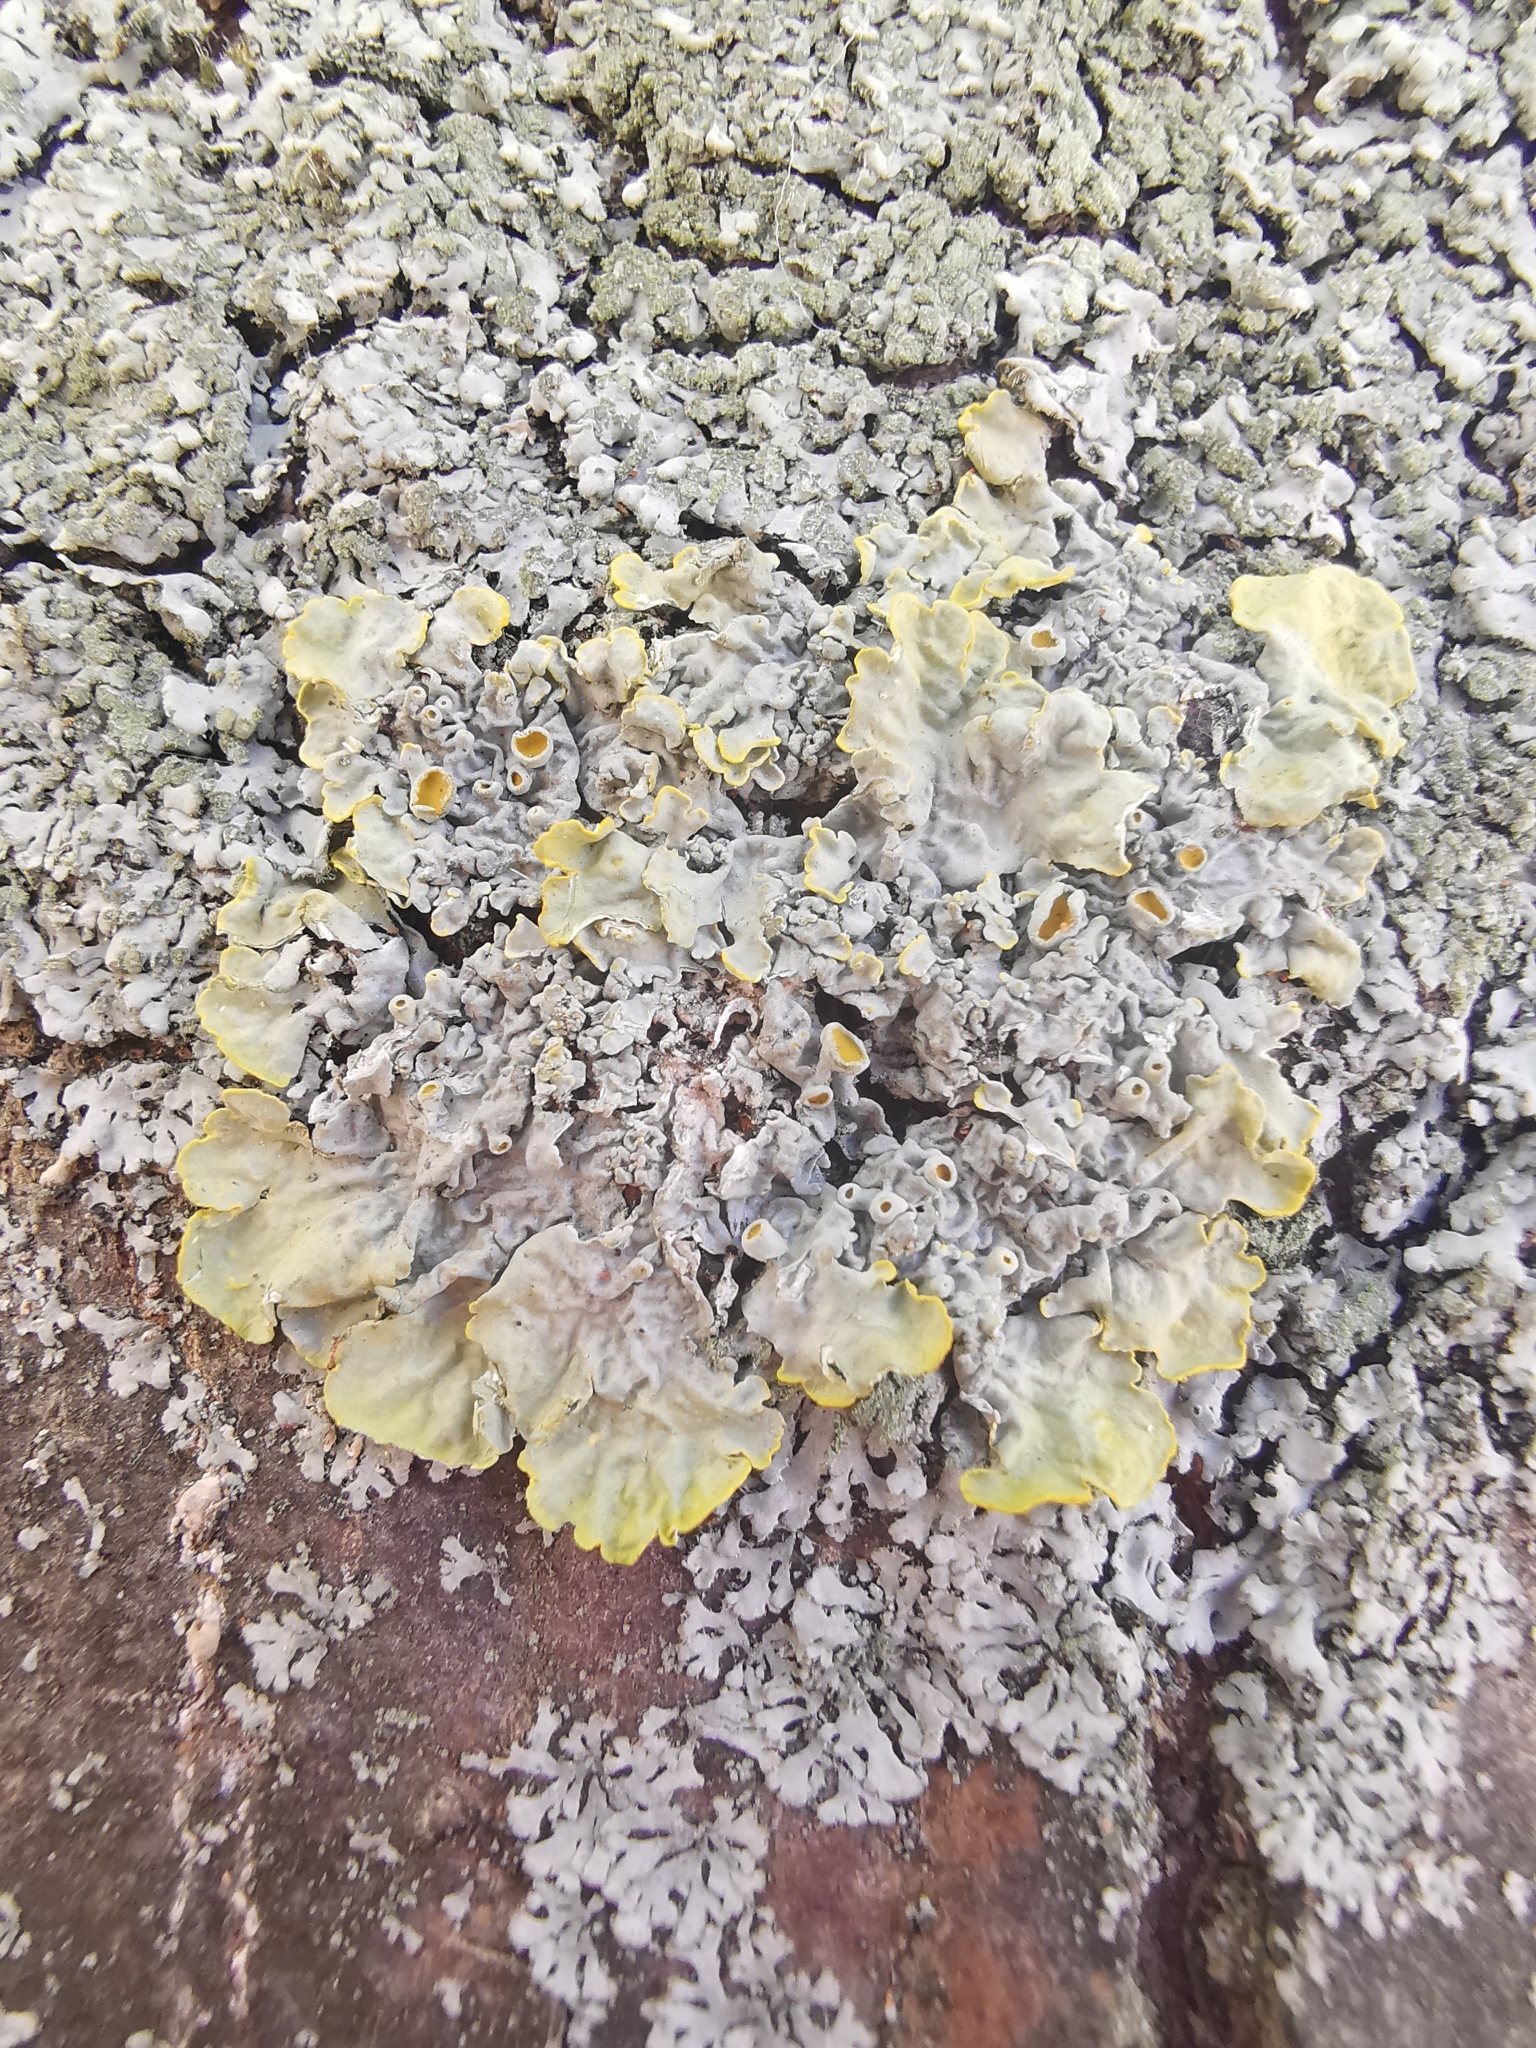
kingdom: Fungi
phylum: Ascomycota
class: Lecanoromycetes
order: Teloschistales
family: Teloschistaceae
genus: Xanthoria
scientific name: Xanthoria parietina
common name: Common orange lichen
